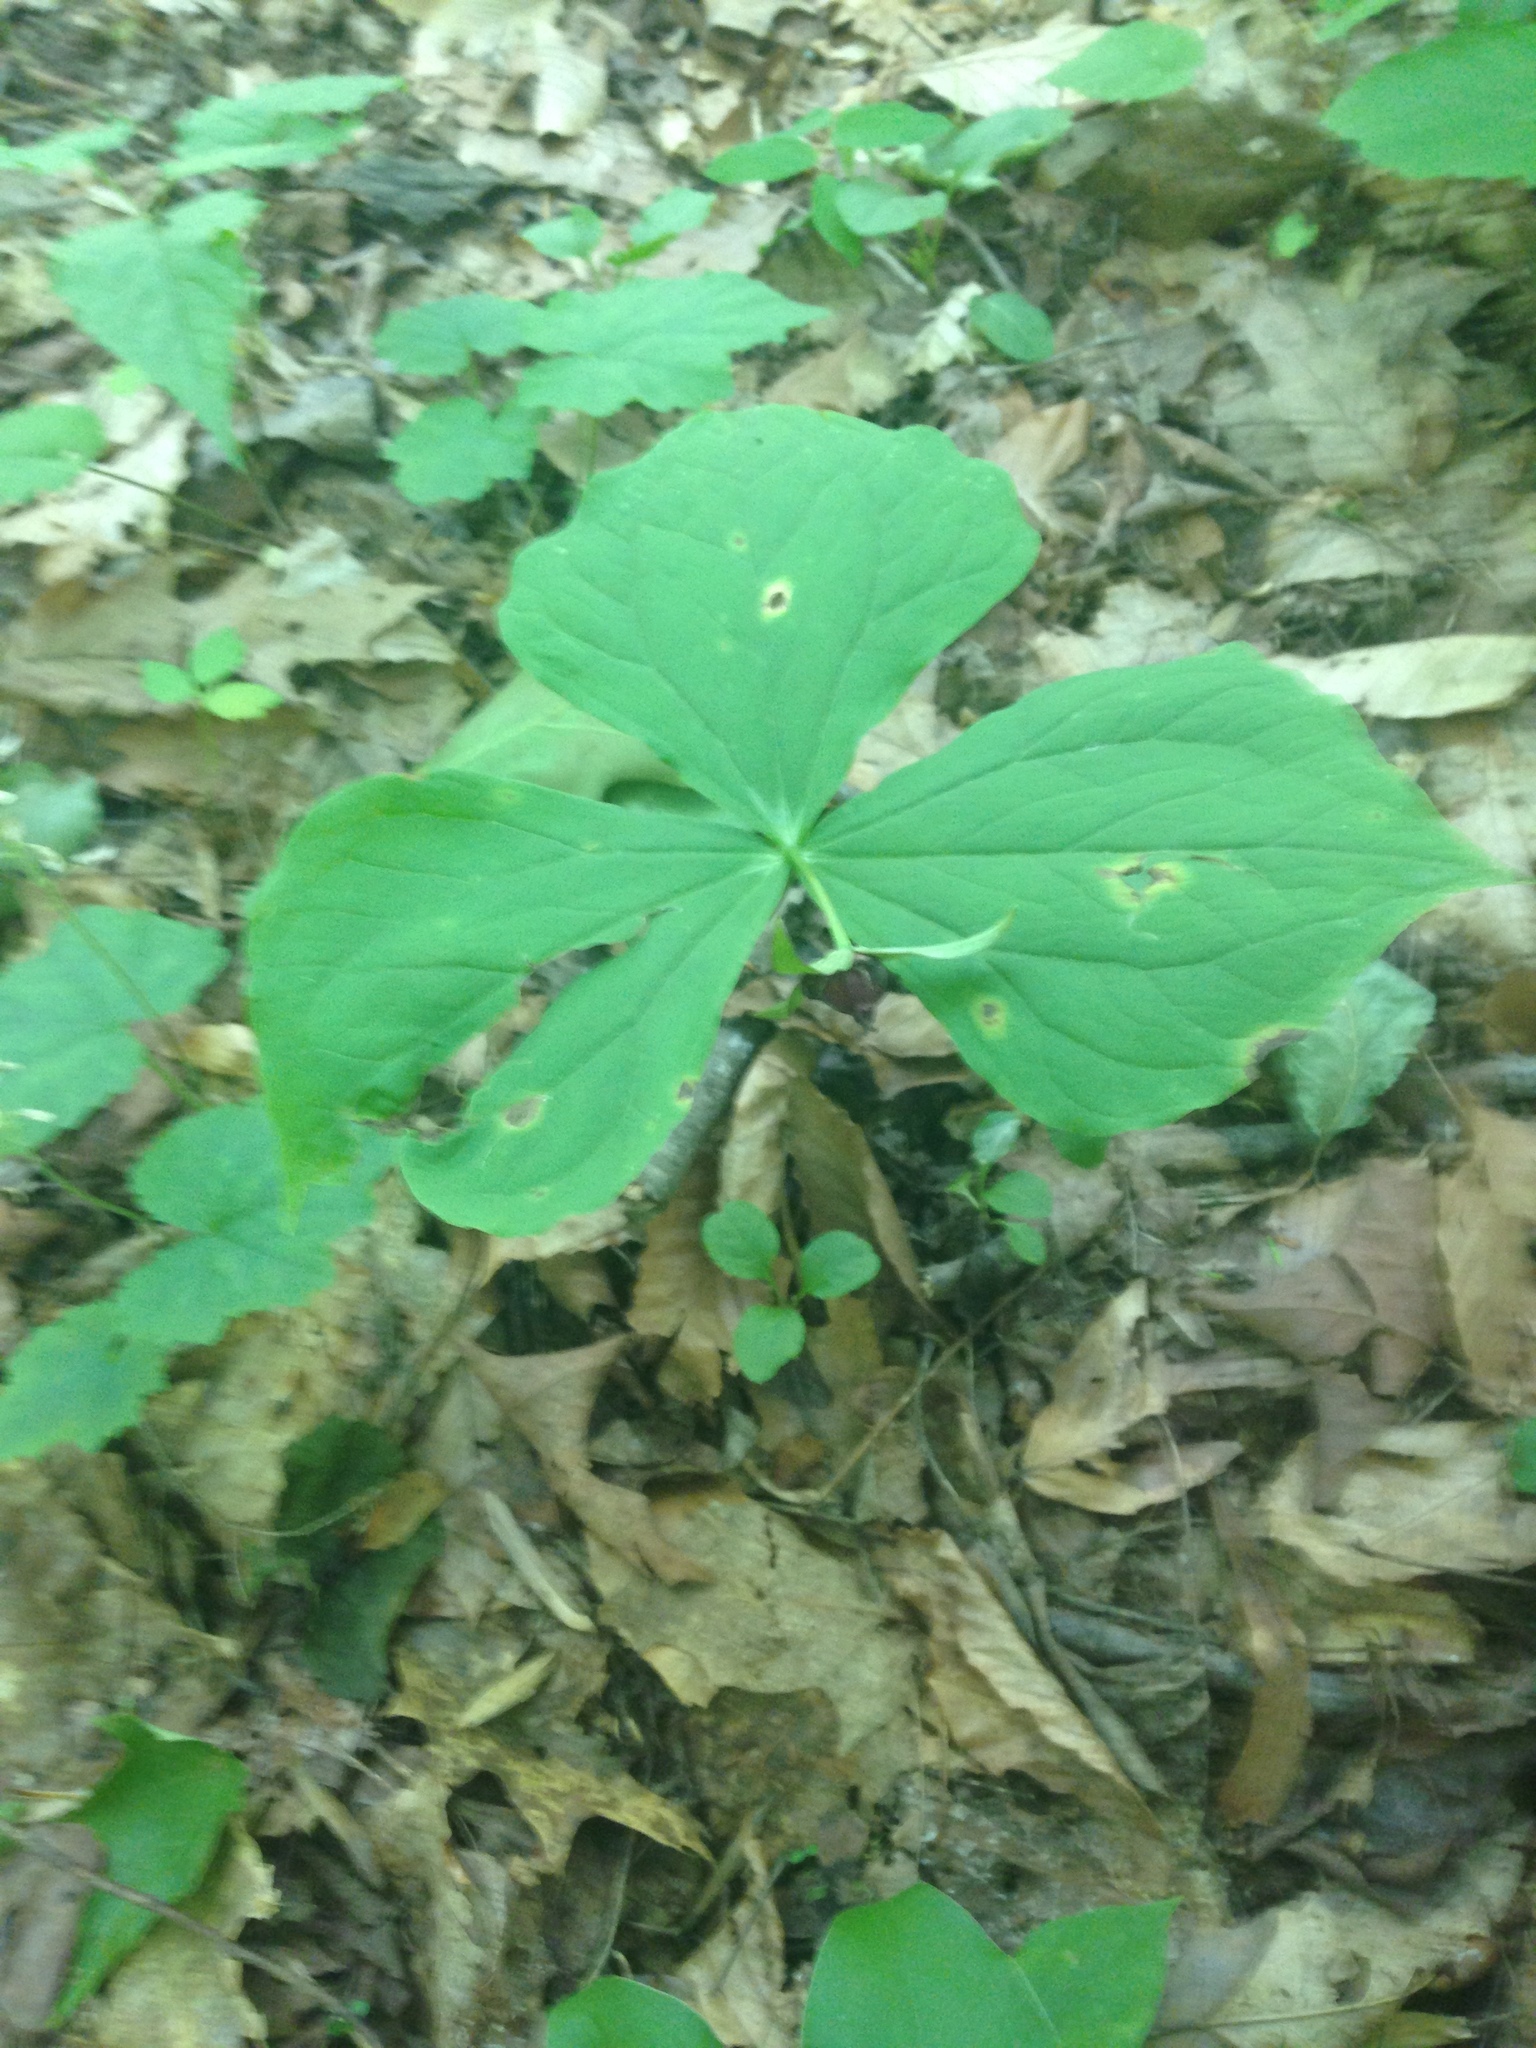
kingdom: Plantae
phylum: Tracheophyta
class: Liliopsida
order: Liliales
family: Melanthiaceae
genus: Trillium
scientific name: Trillium erectum
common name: Purple trillium
